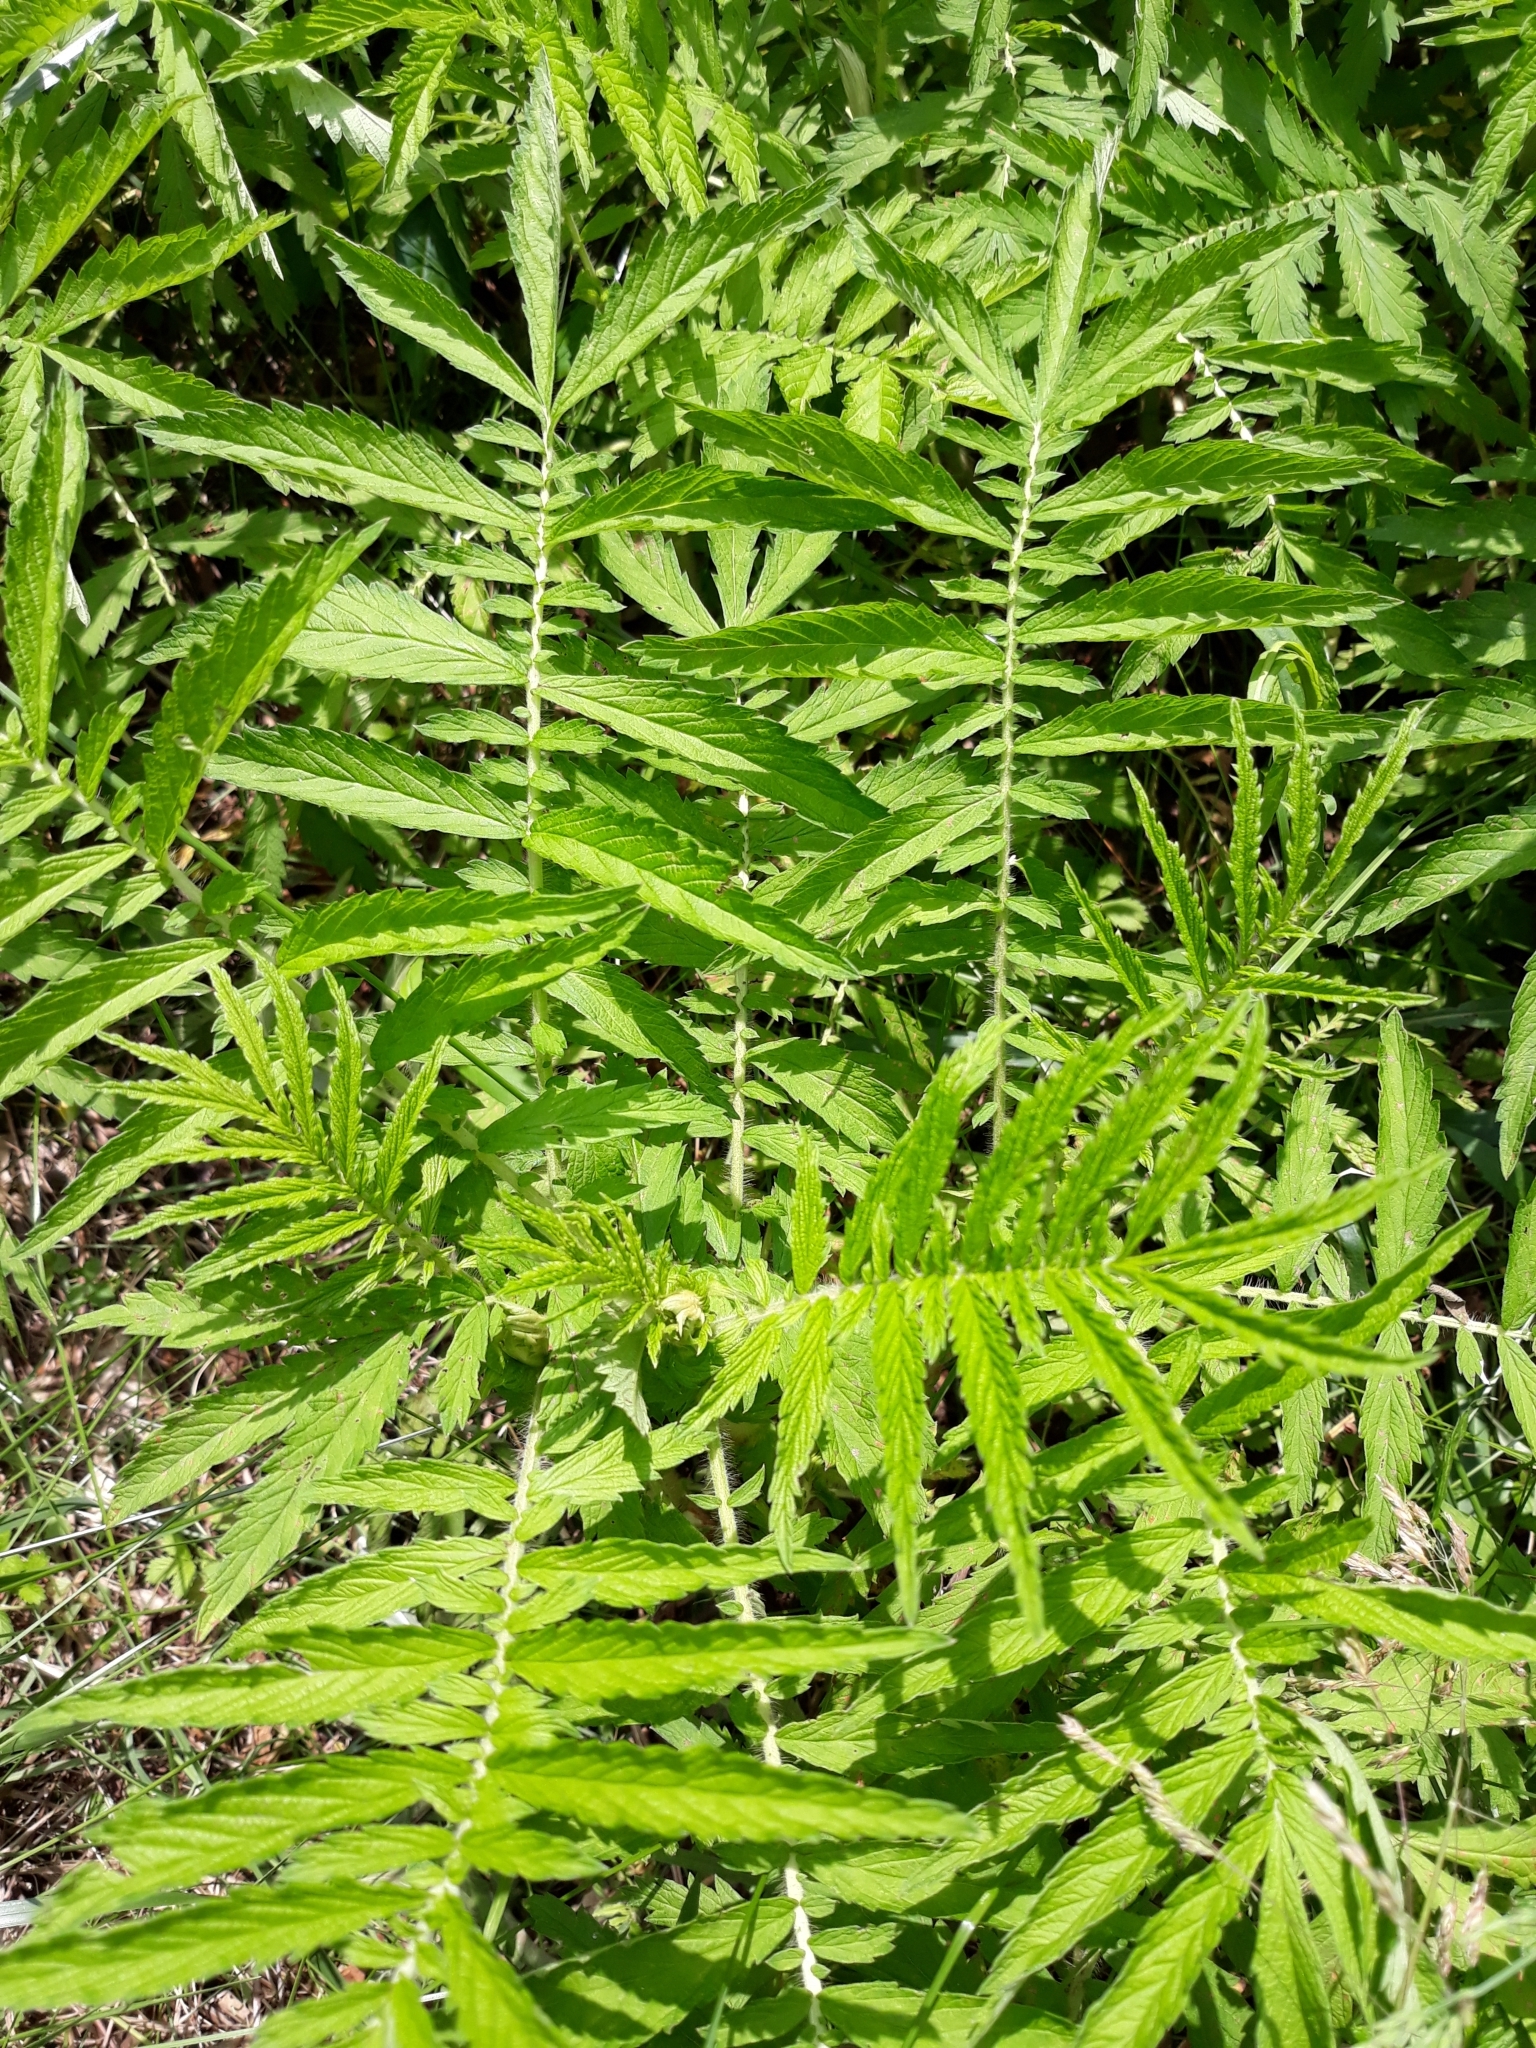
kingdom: Plantae
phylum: Tracheophyta
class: Magnoliopsida
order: Rosales
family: Rosaceae
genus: Agrimonia
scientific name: Agrimonia parviflora
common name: Harvest-lice
